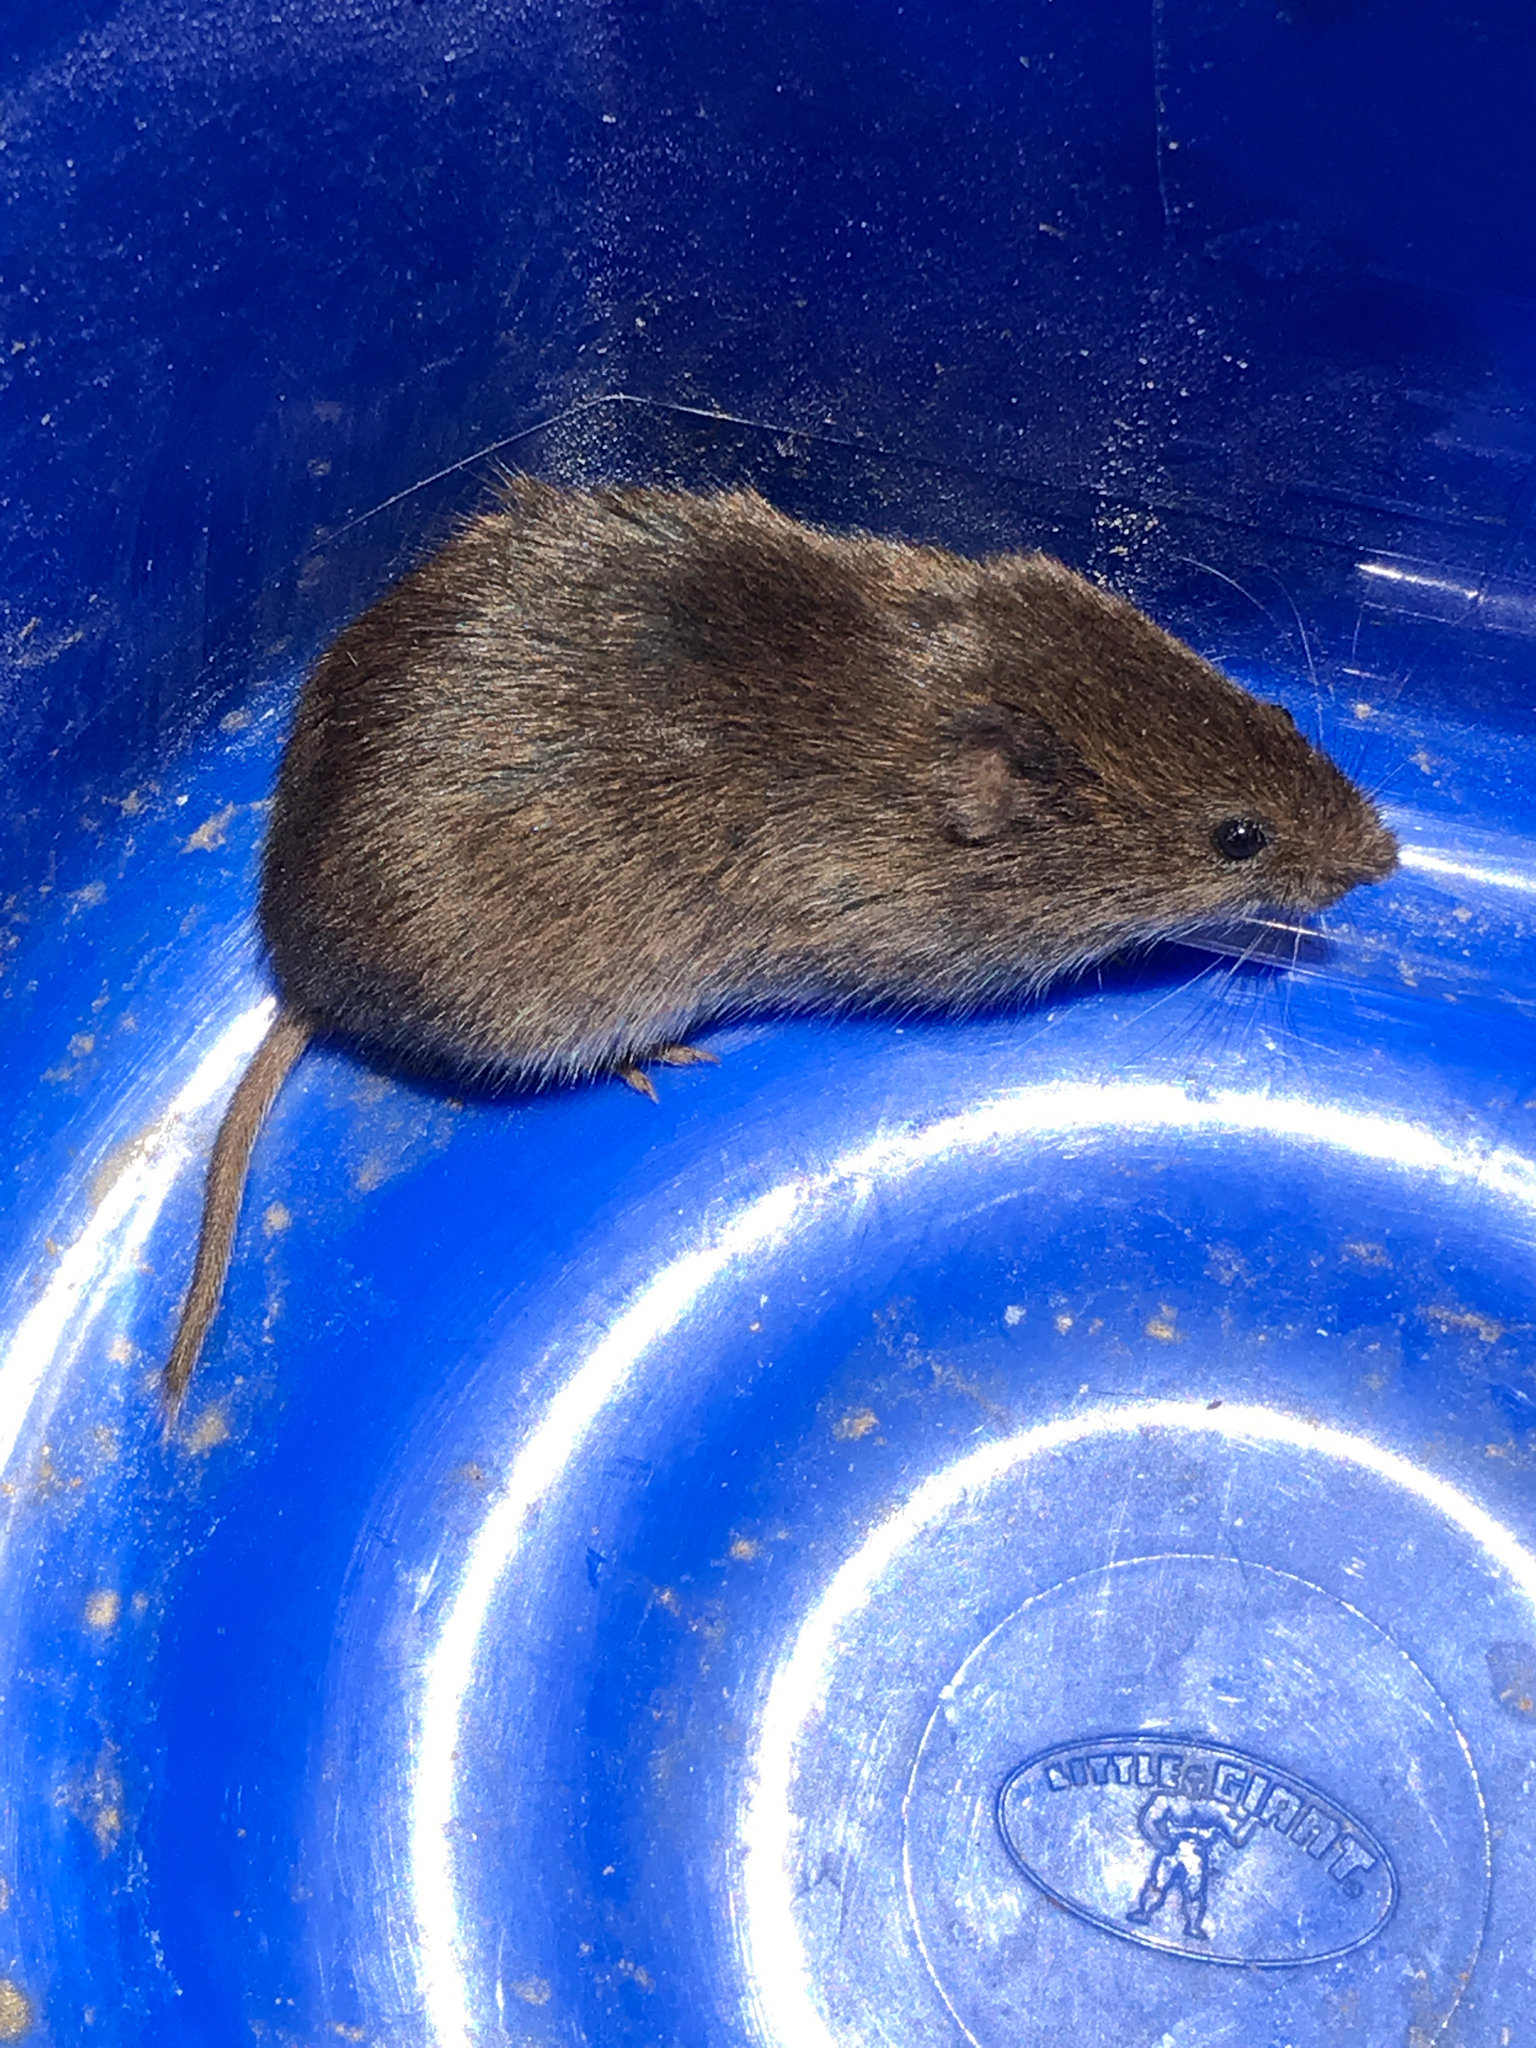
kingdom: Animalia
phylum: Chordata
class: Mammalia
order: Rodentia
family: Cricetidae
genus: Microtus
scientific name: Microtus pennsylvanicus
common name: Meadow vole
